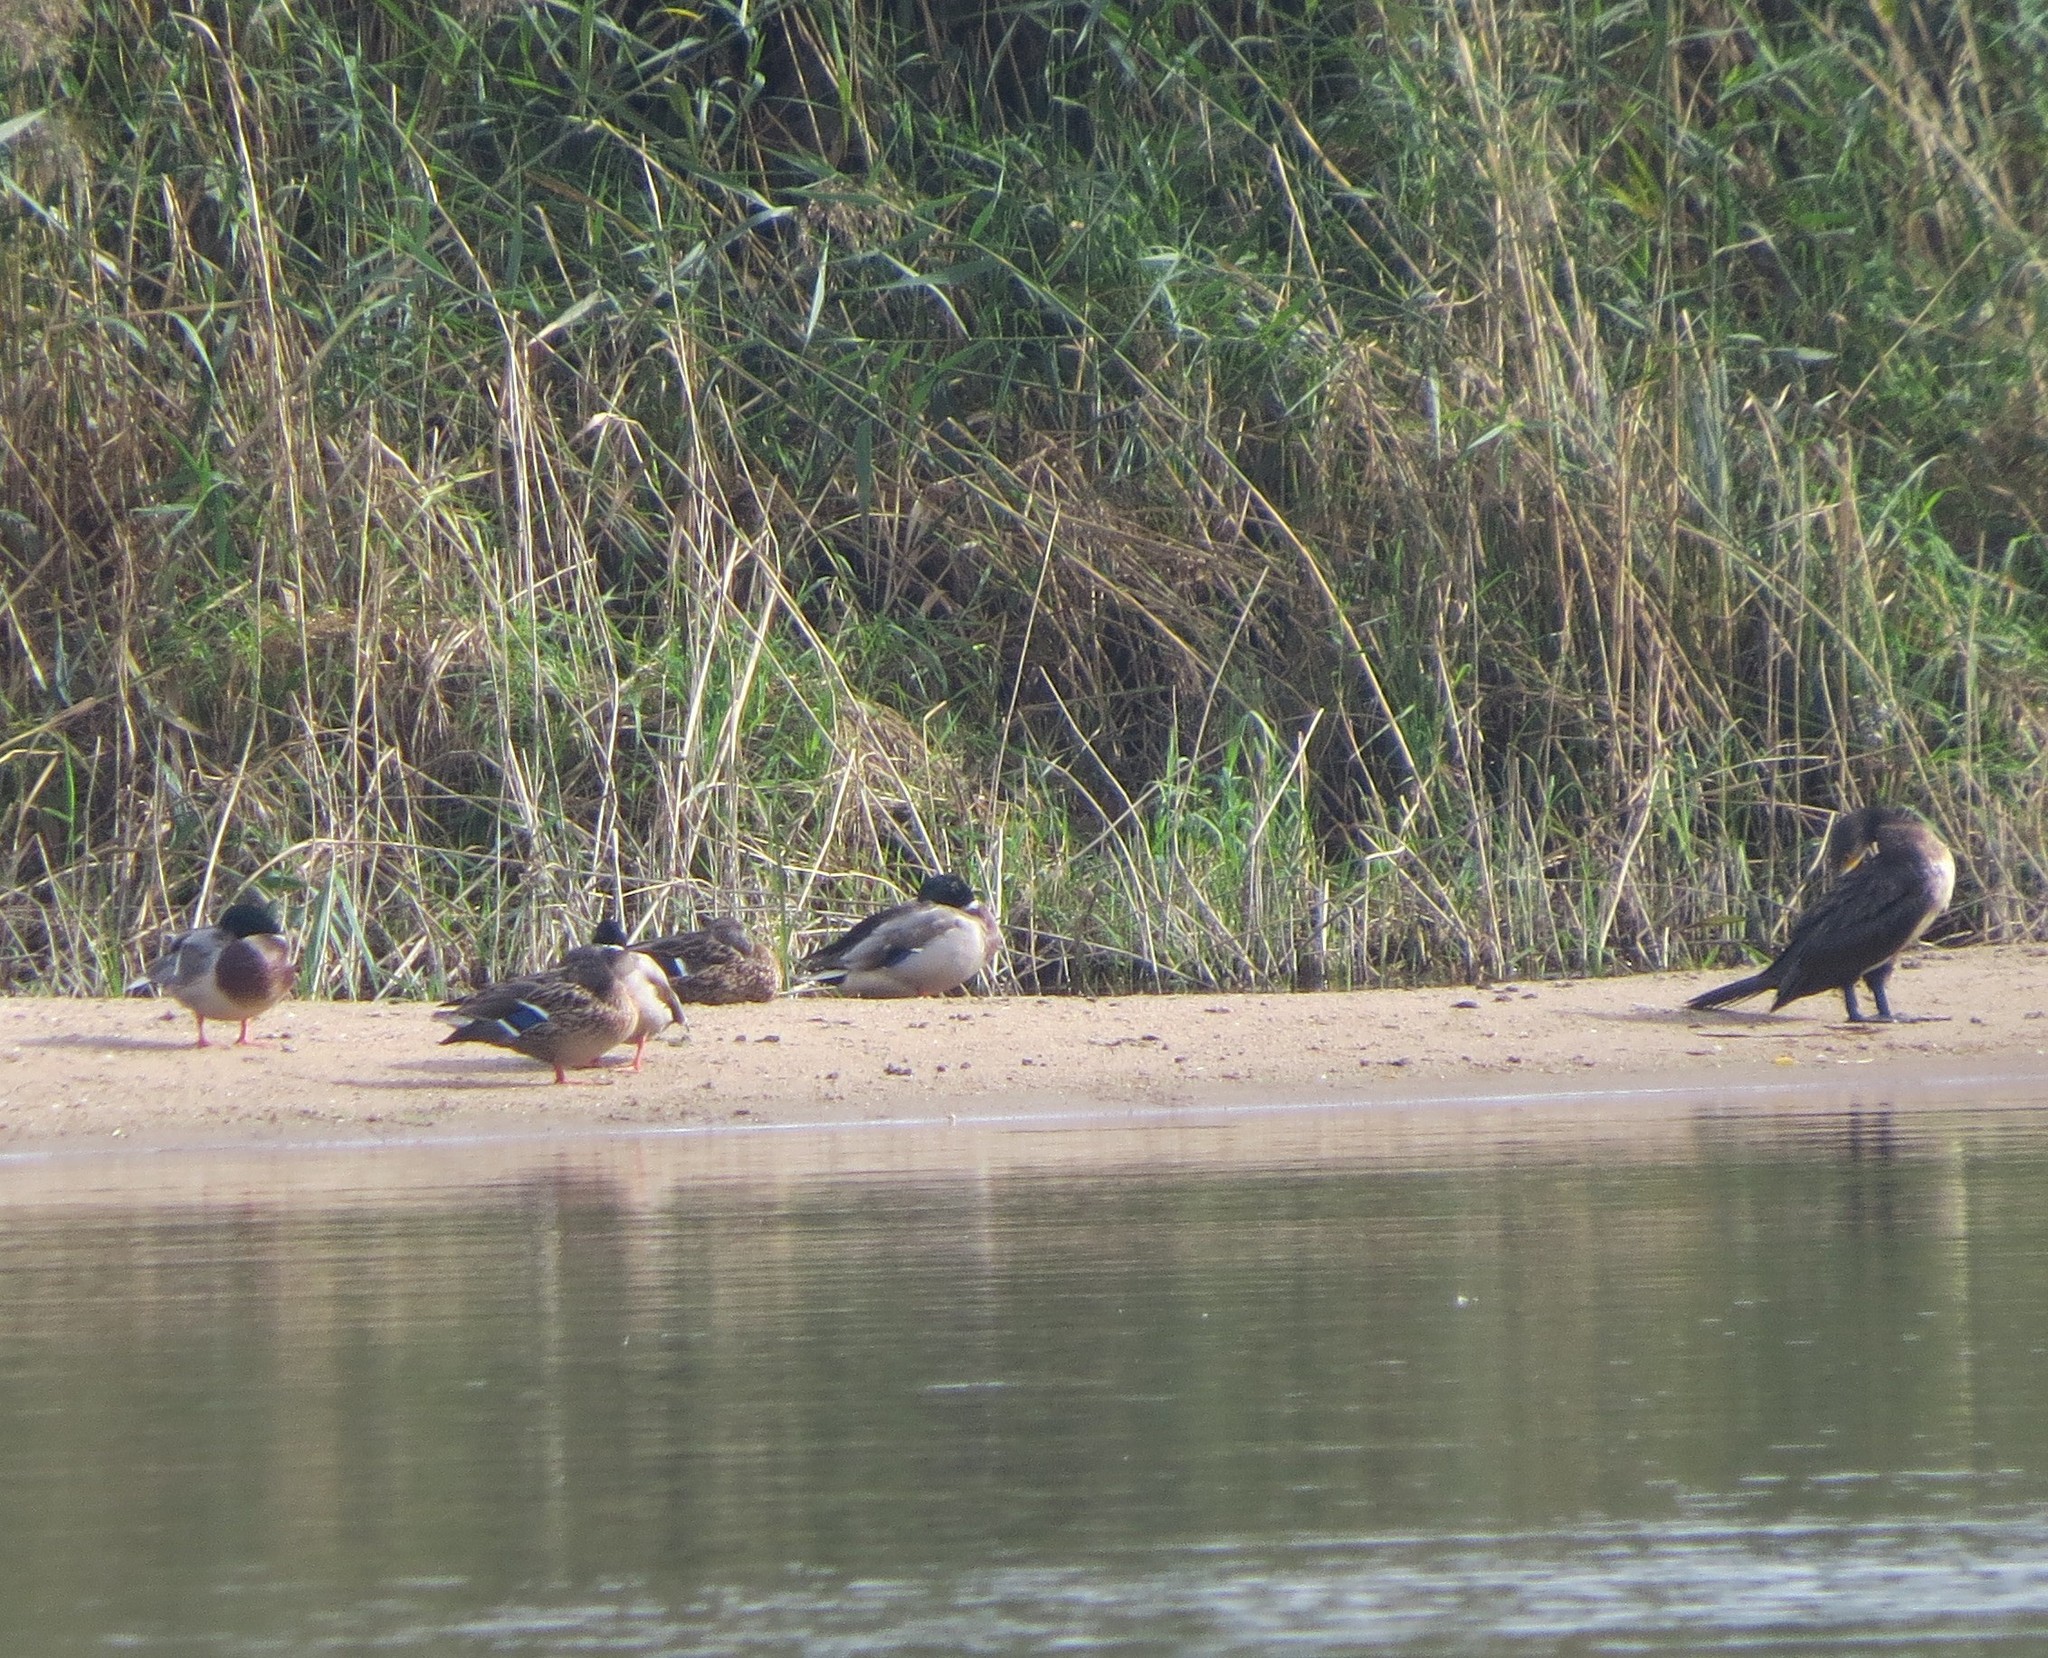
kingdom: Animalia
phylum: Chordata
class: Aves
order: Anseriformes
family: Anatidae
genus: Anas
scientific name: Anas platyrhynchos
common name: Mallard
